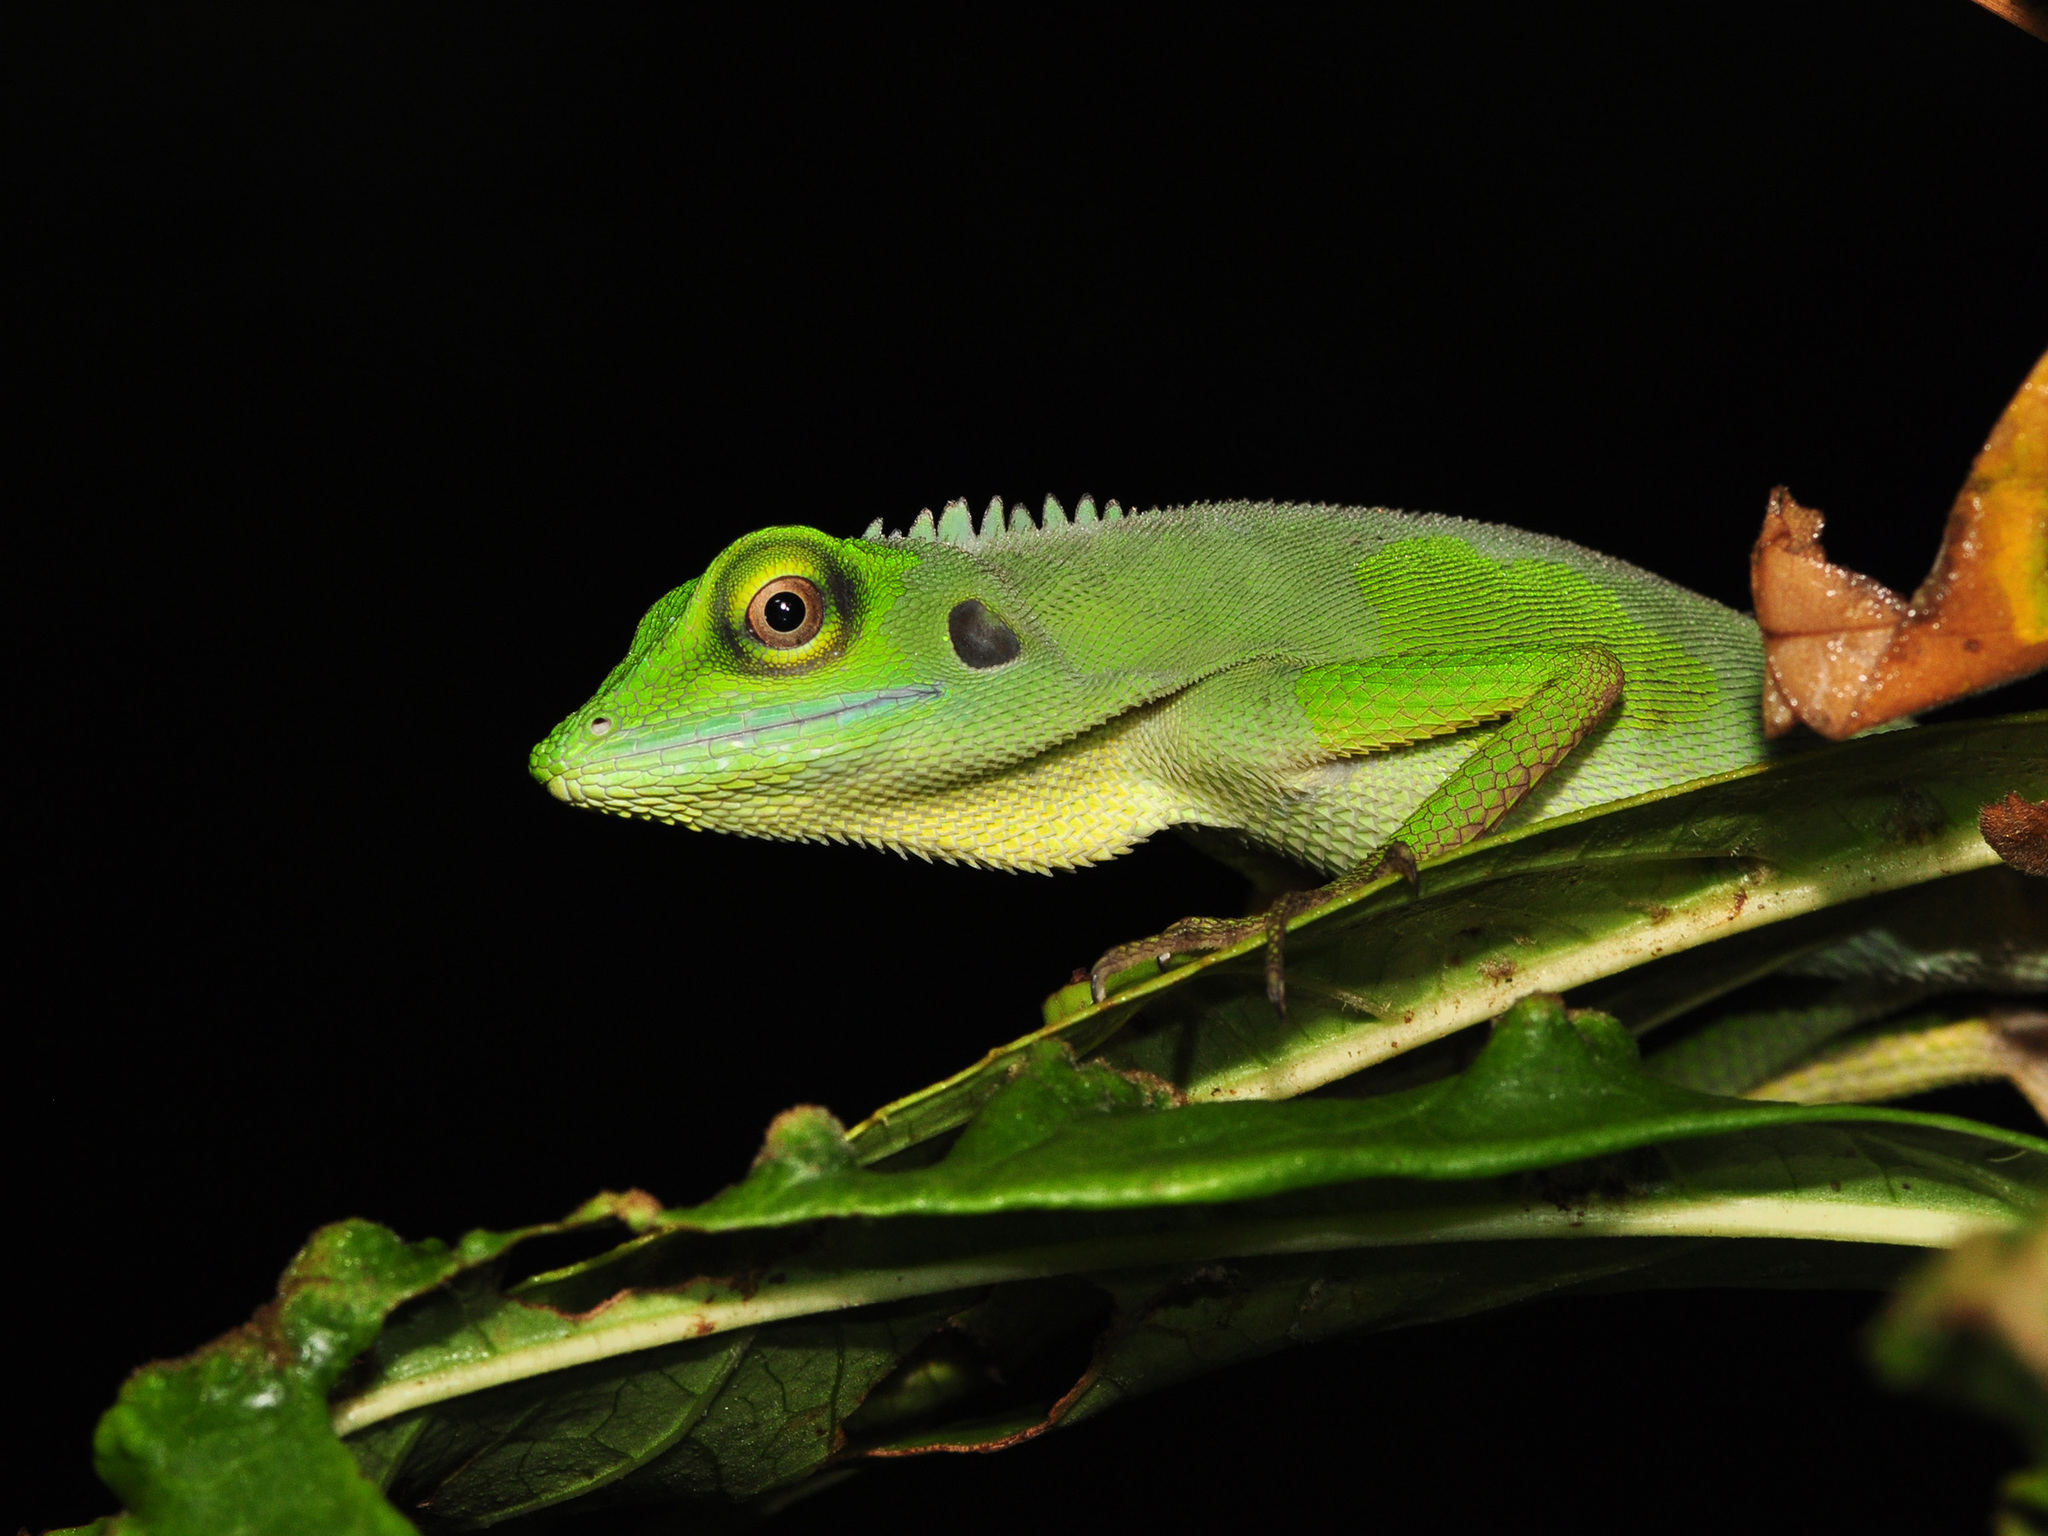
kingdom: Animalia
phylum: Chordata
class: Squamata
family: Agamidae
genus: Bronchocela
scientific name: Bronchocela cristatella
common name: Green crested lizard
